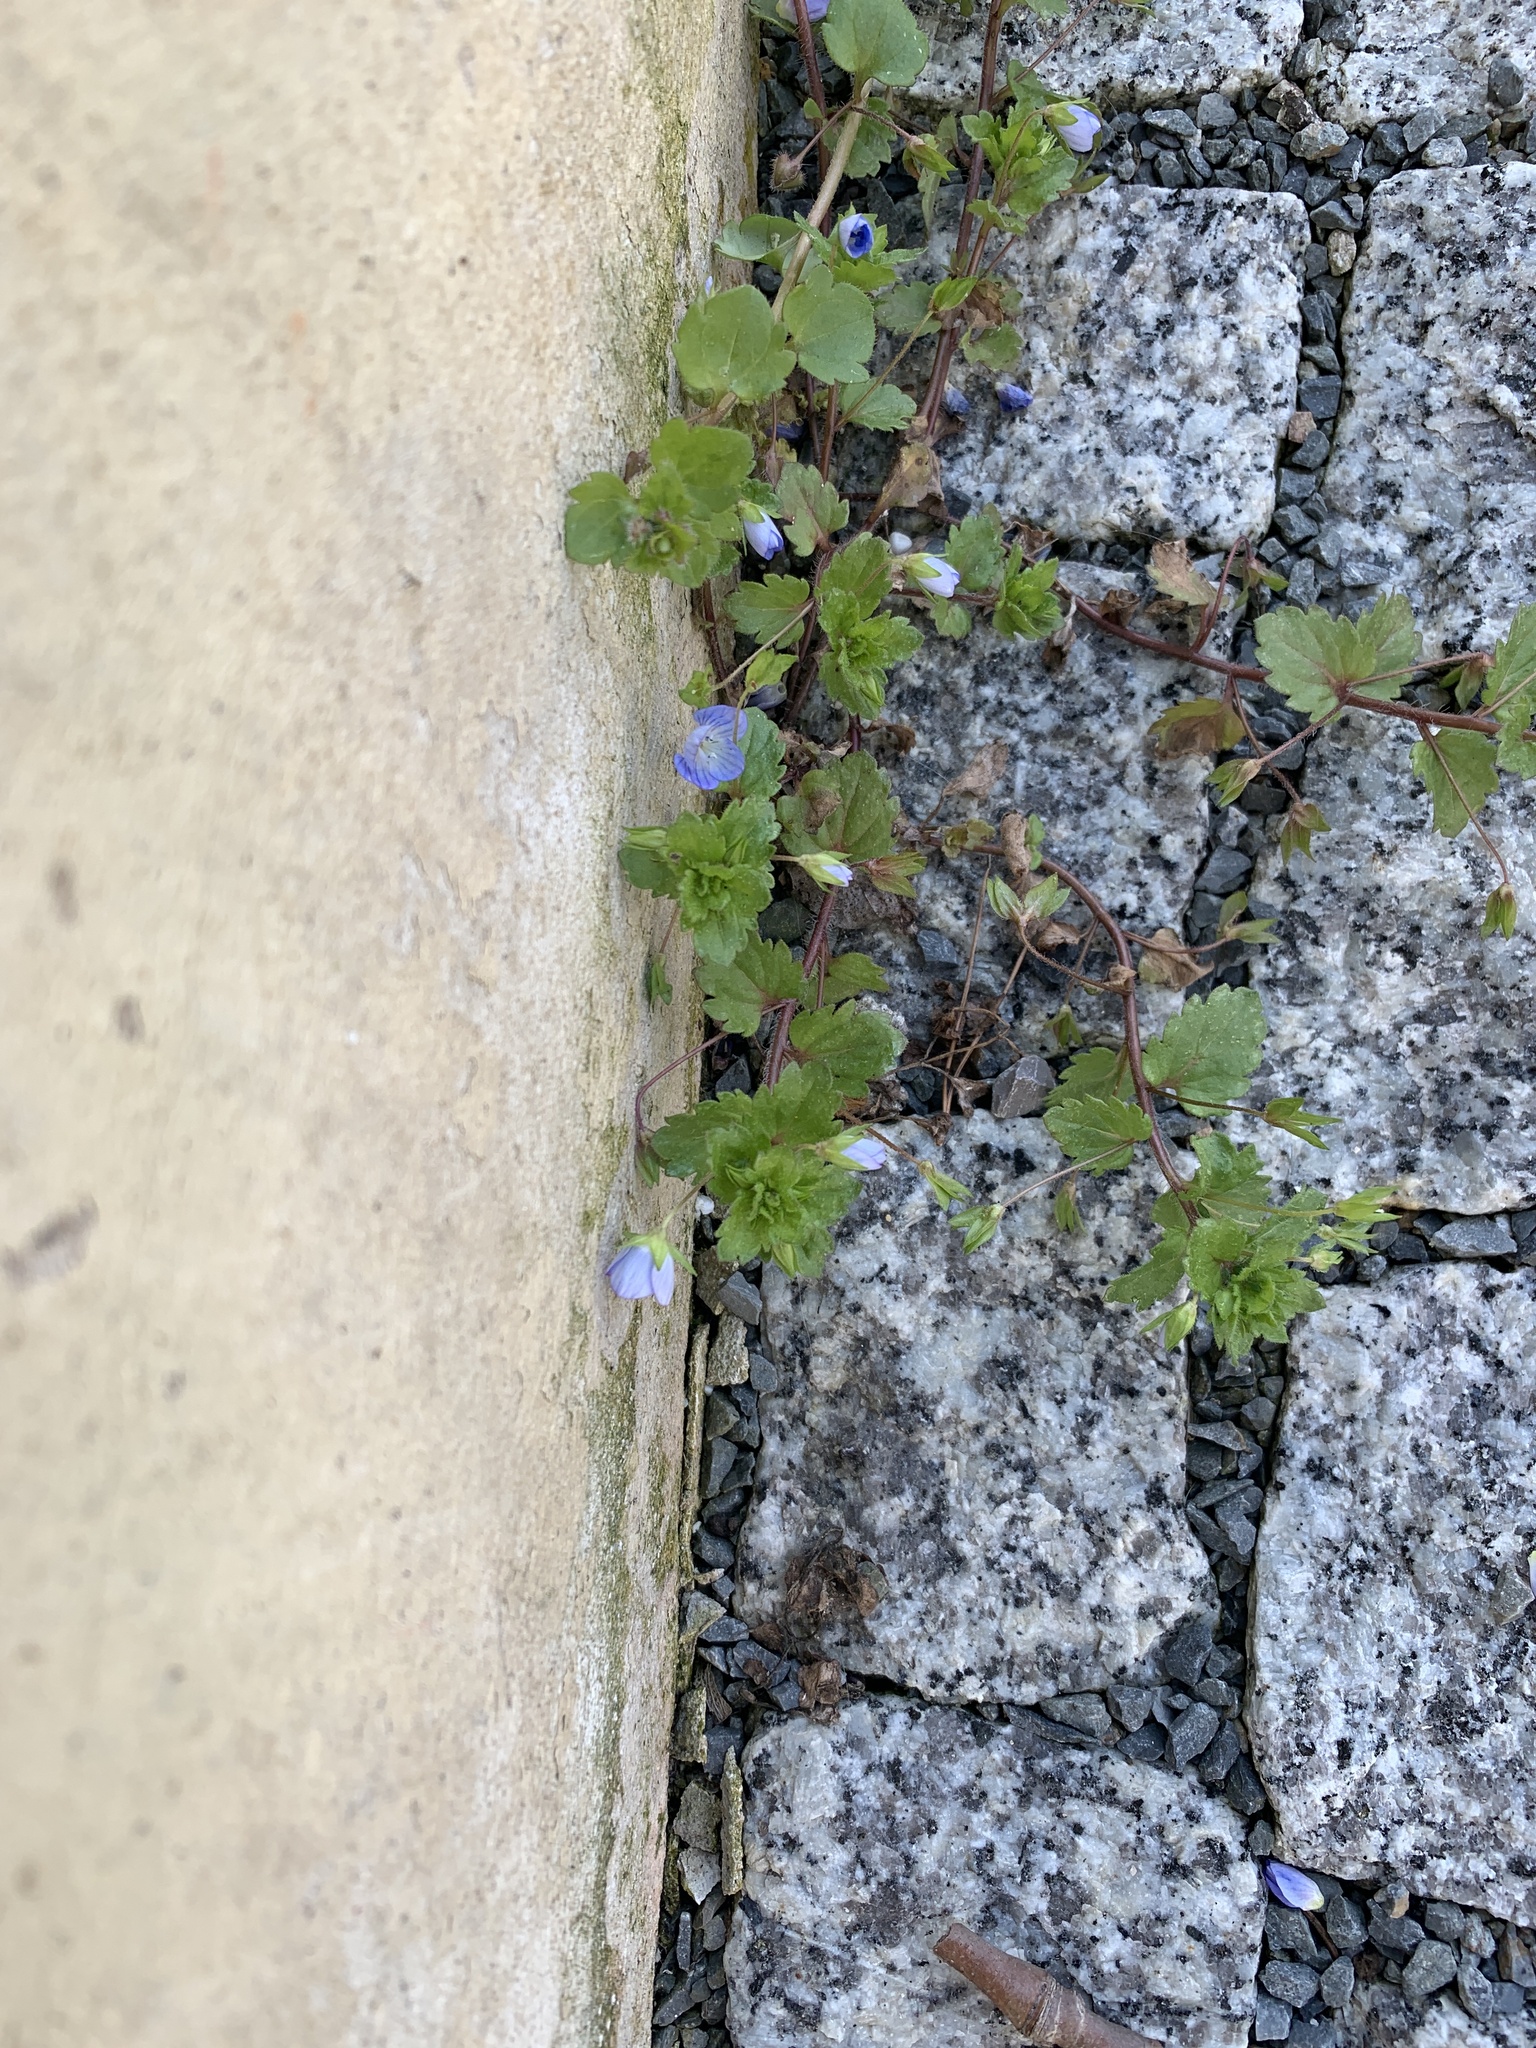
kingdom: Plantae
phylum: Tracheophyta
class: Magnoliopsida
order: Lamiales
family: Plantaginaceae
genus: Veronica
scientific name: Veronica persica
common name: Common field-speedwell
